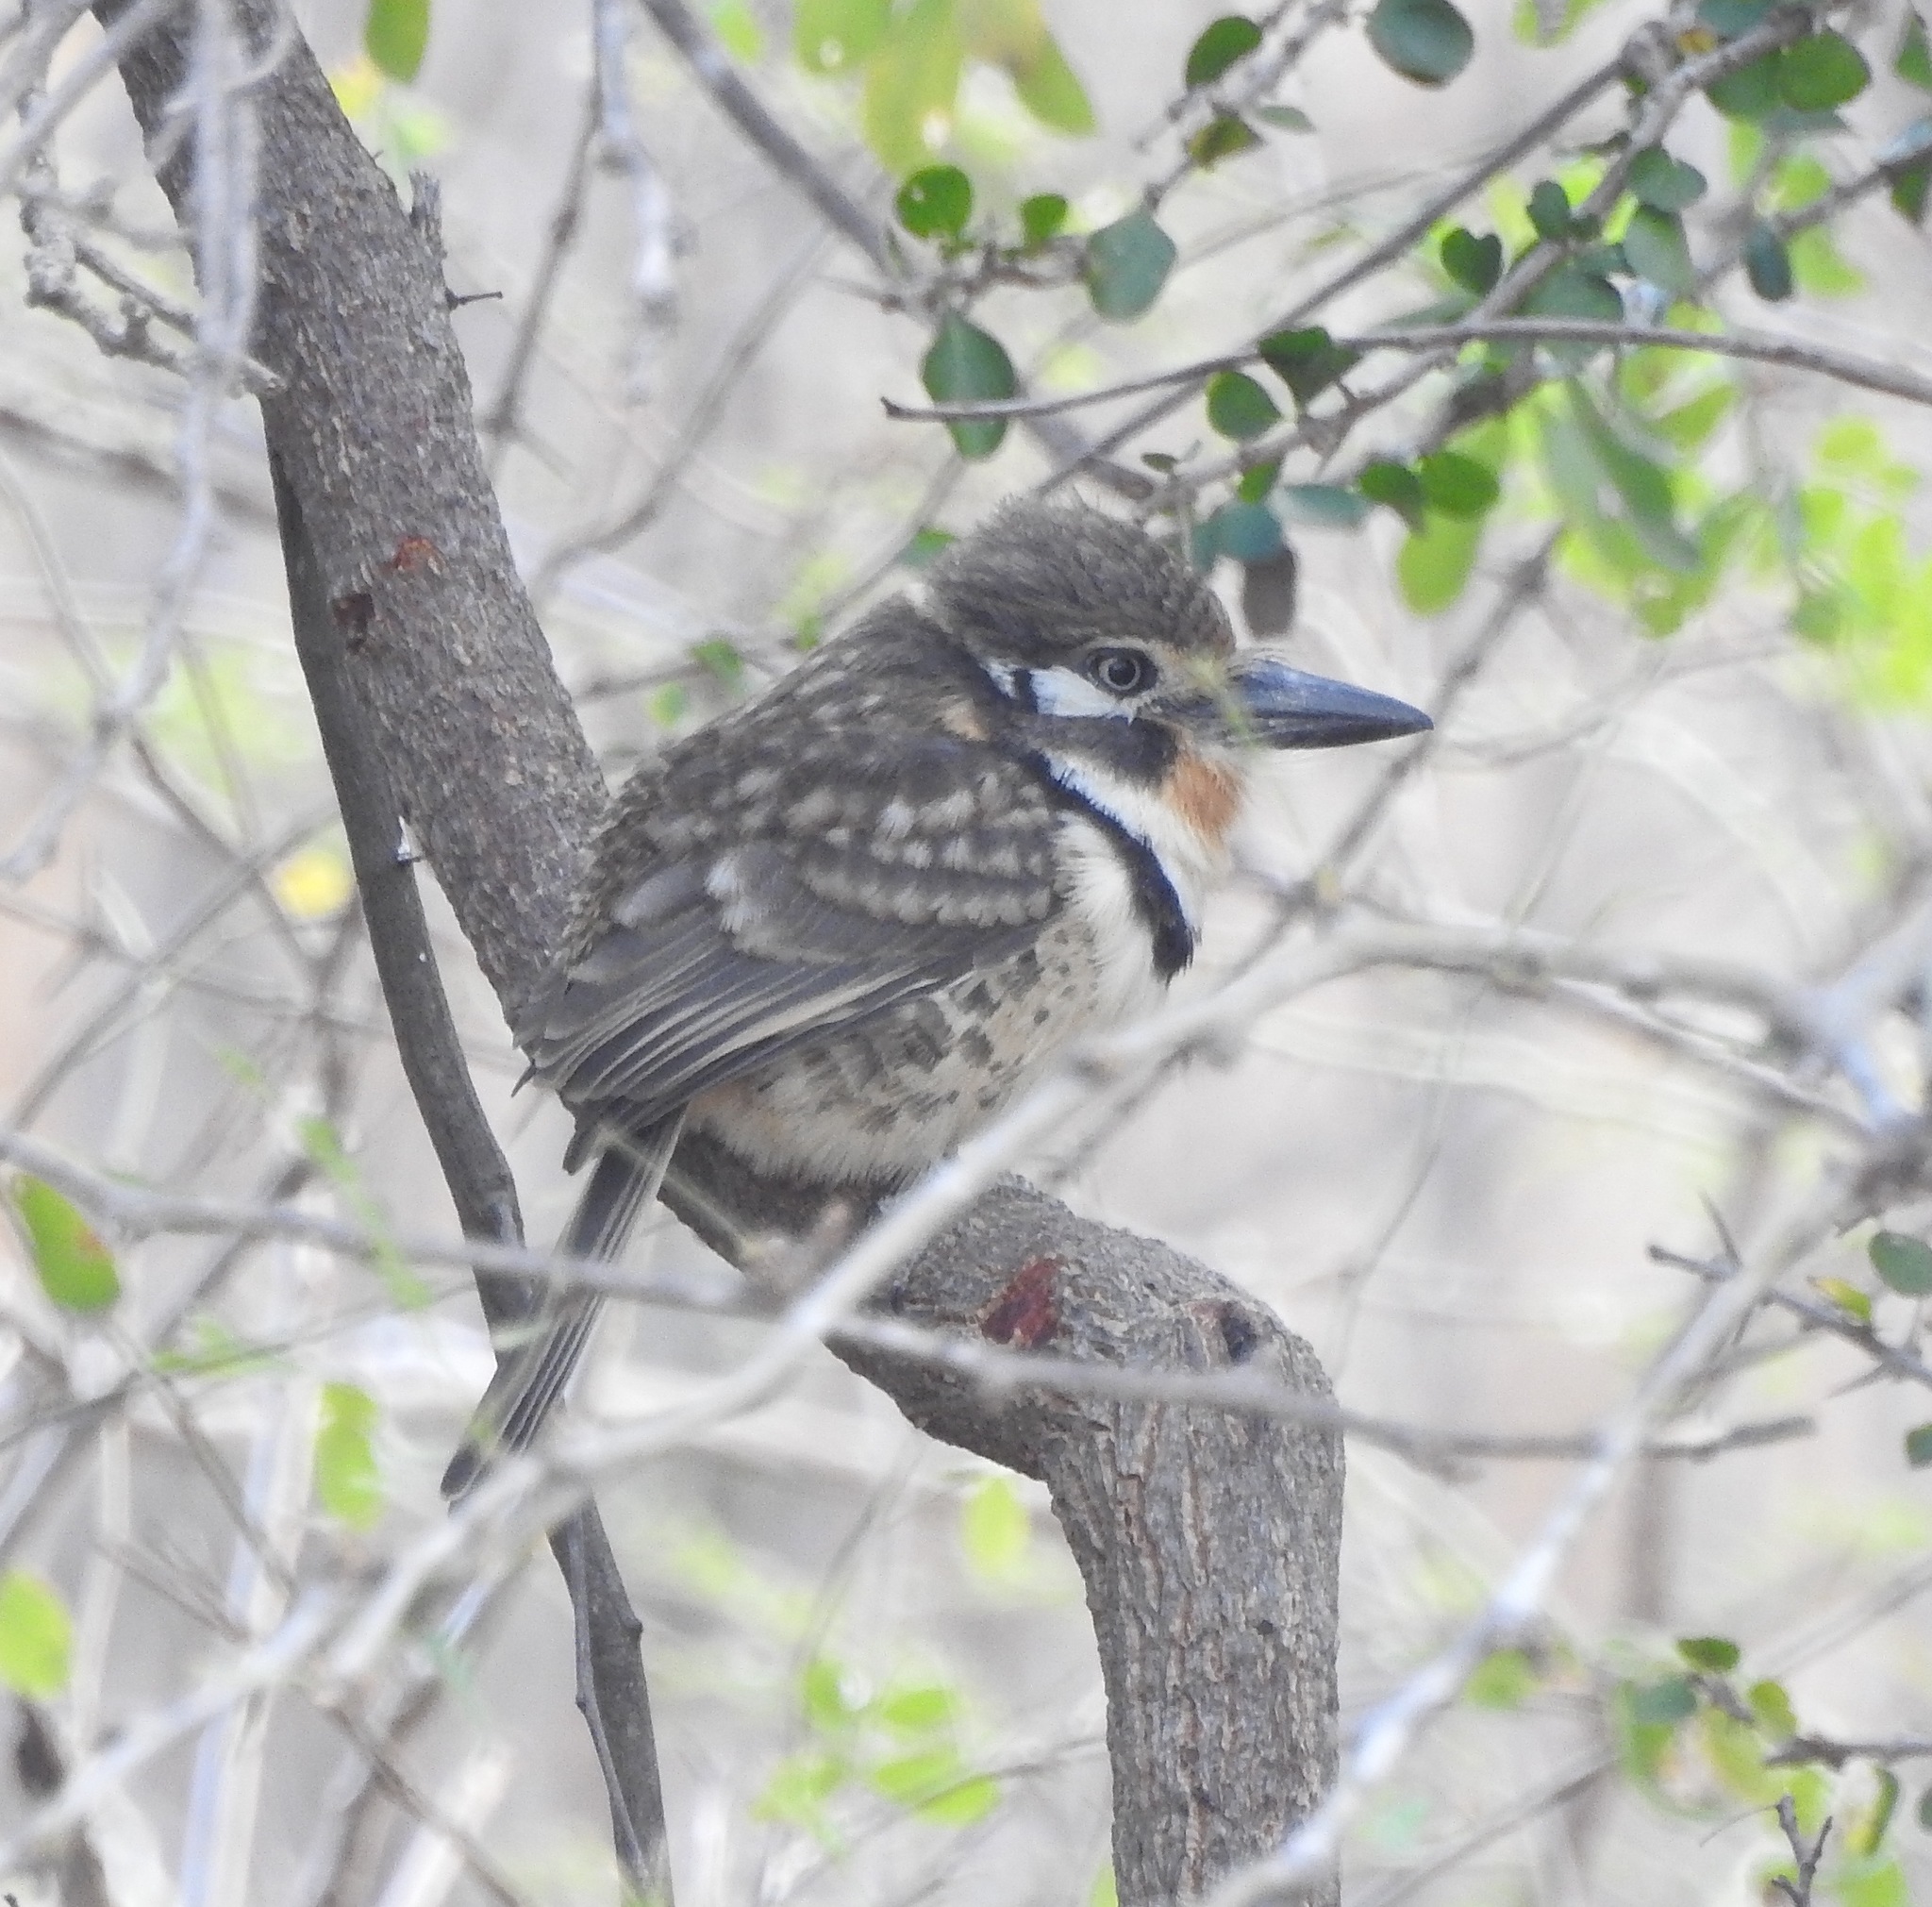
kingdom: Animalia
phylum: Chordata
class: Aves
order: Piciformes
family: Bucconidae
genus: Hypnelus
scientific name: Hypnelus ruficollis
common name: Russet-throated puffbird
